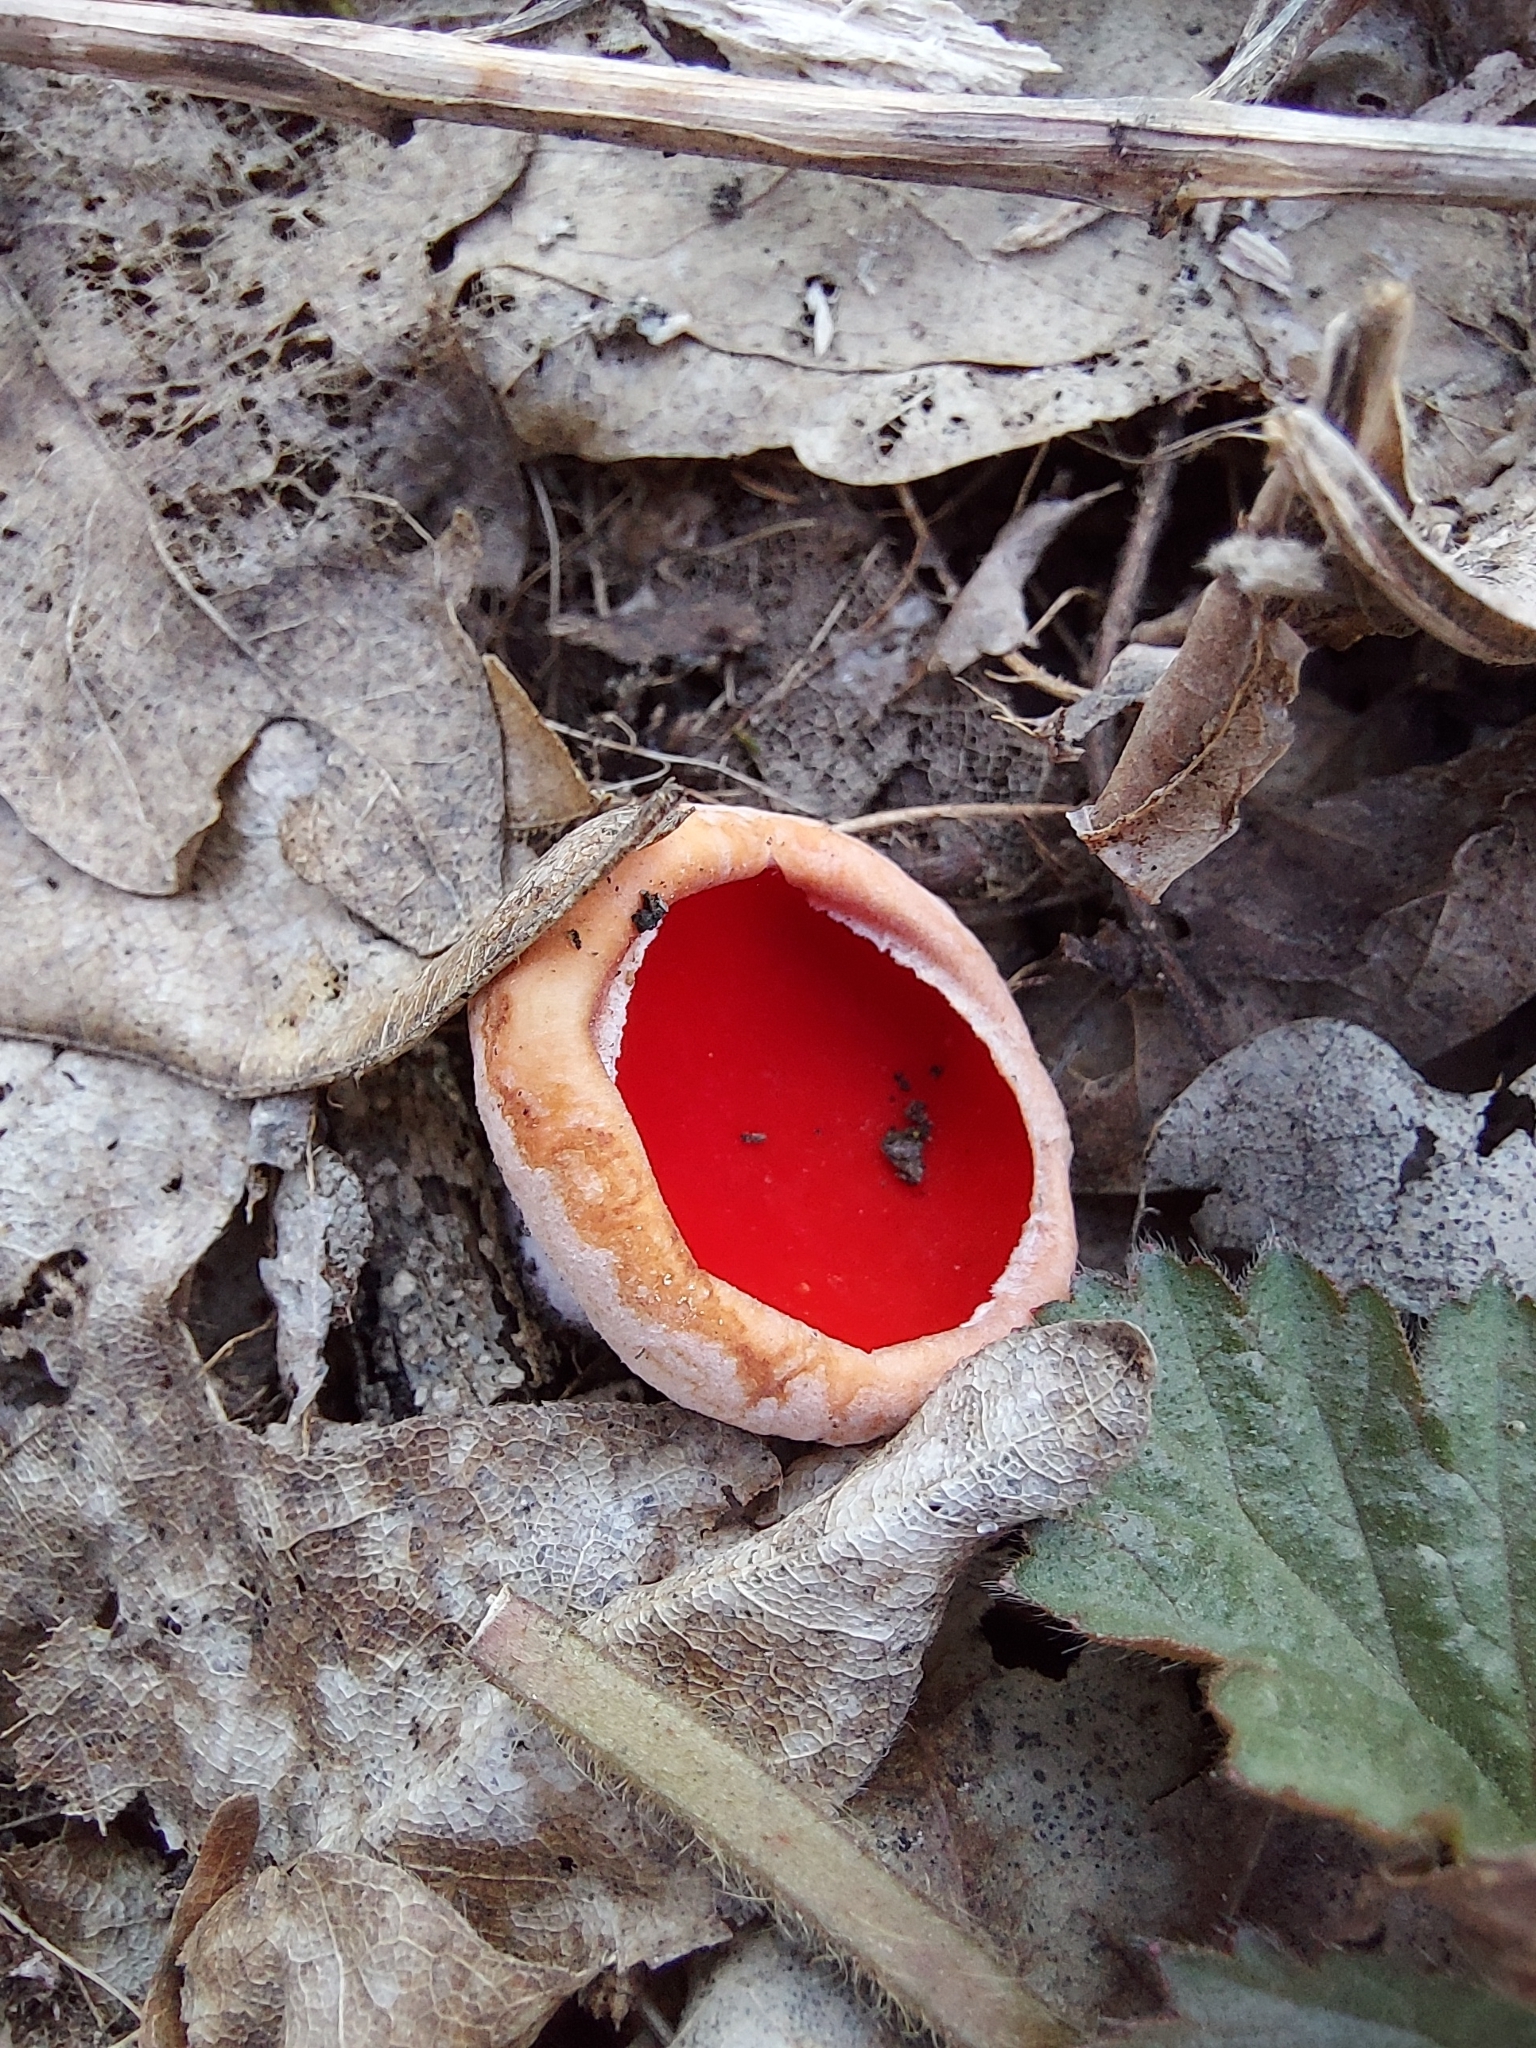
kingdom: Fungi
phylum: Ascomycota
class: Pezizomycetes
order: Pezizales
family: Sarcoscyphaceae
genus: Sarcoscypha
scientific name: Sarcoscypha
